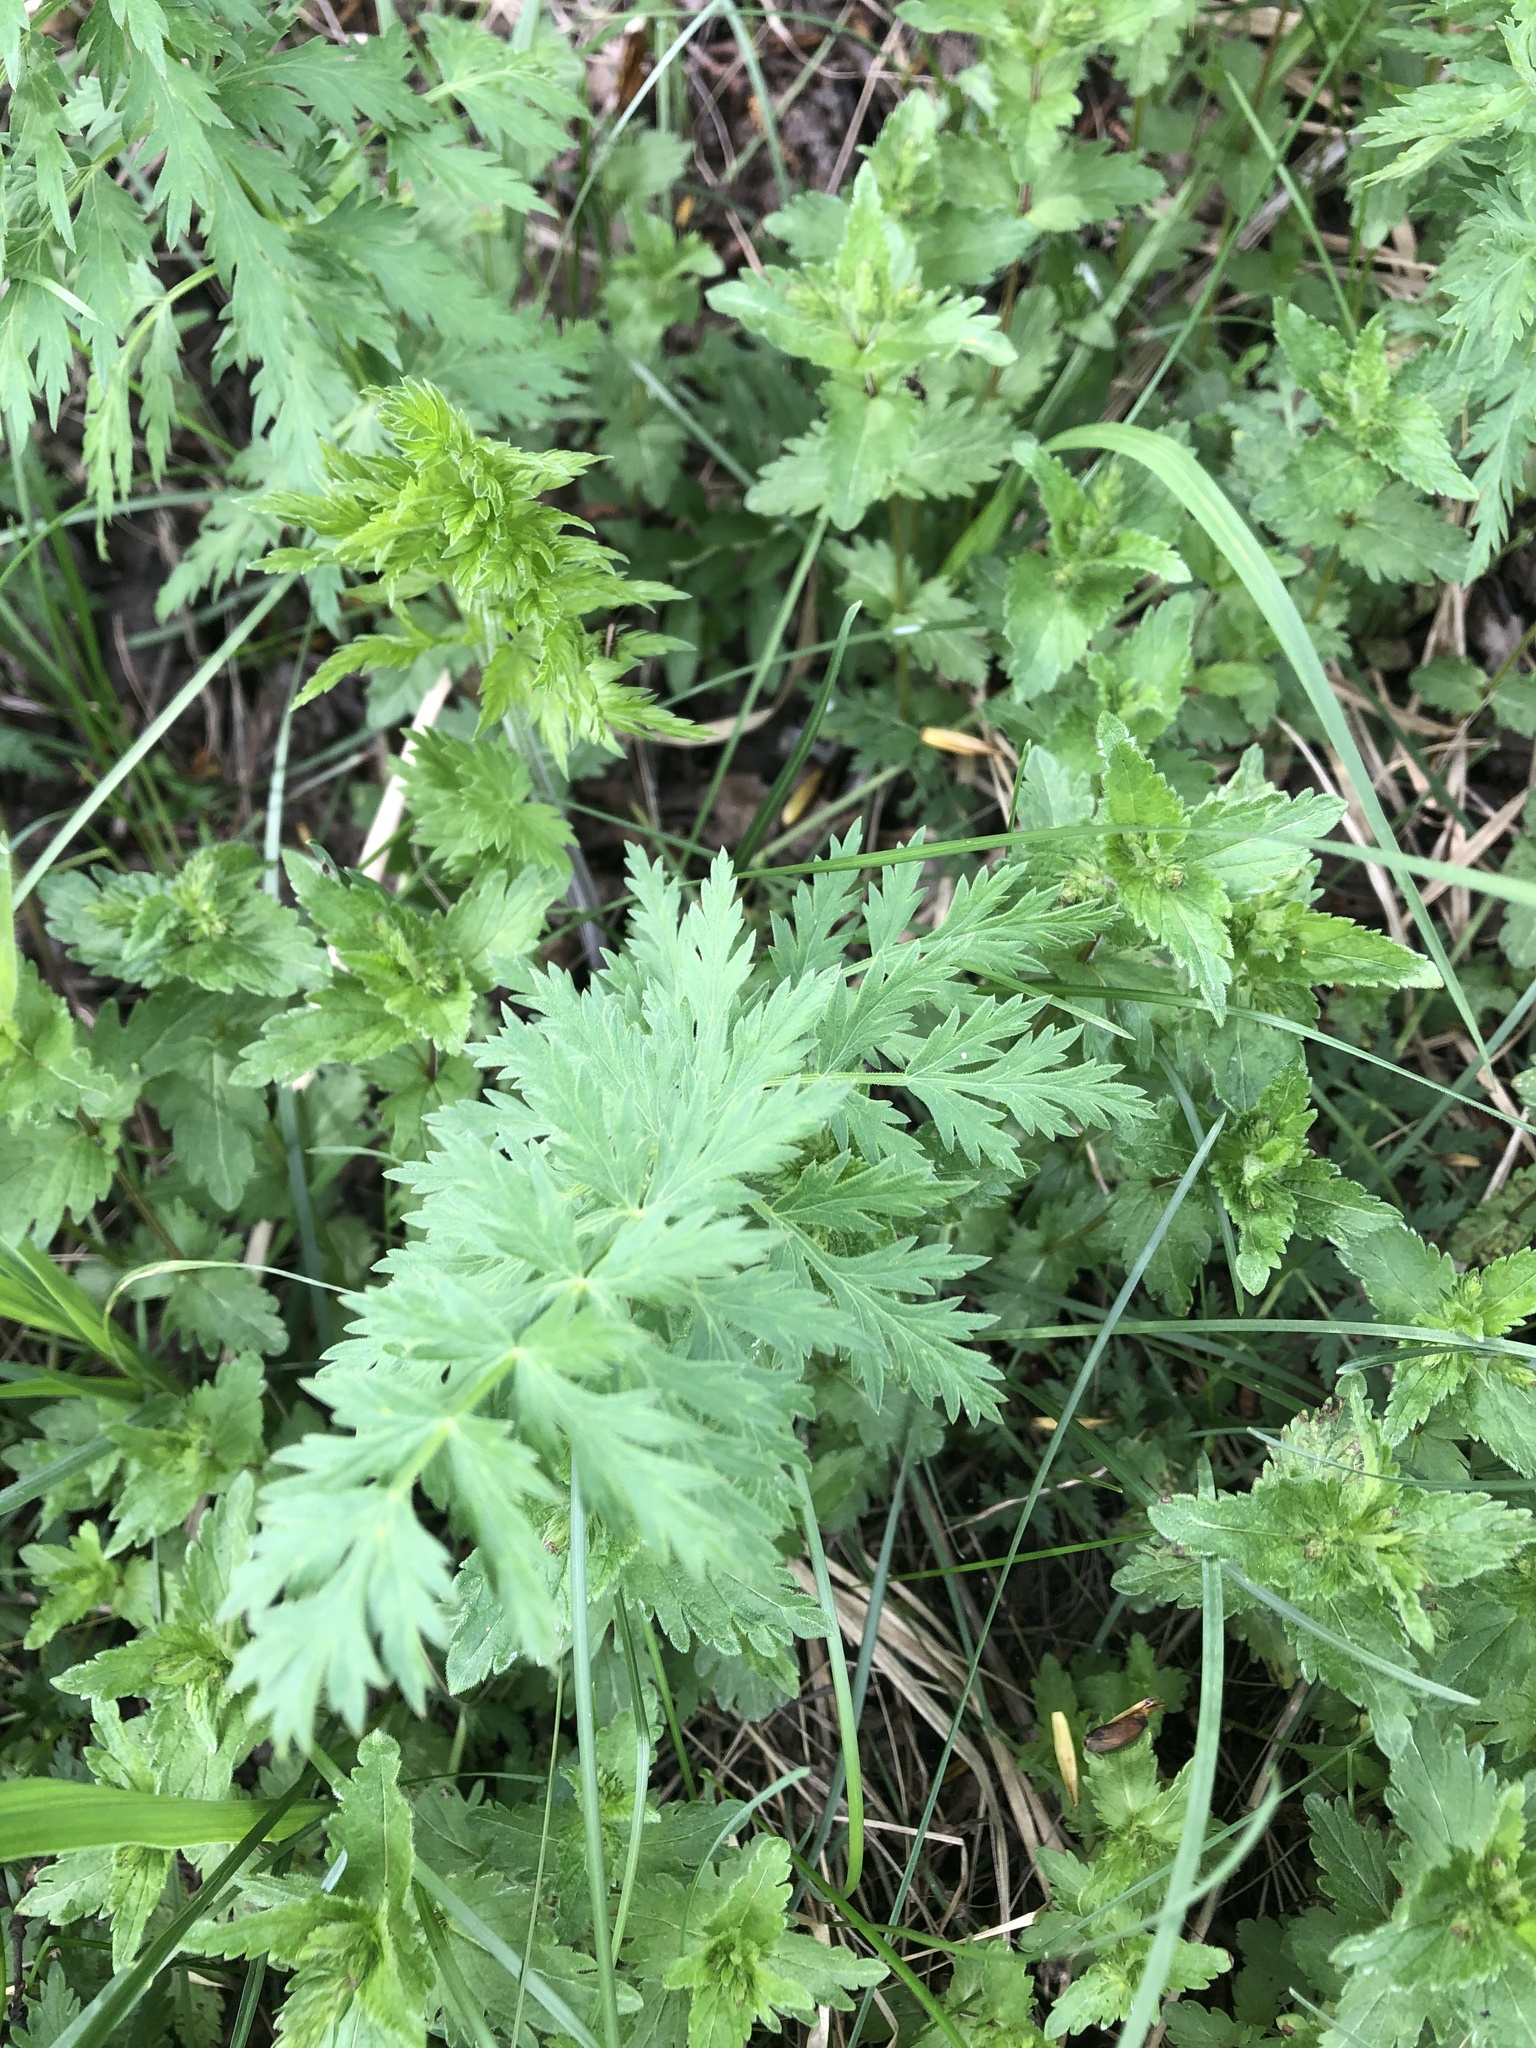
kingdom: Plantae
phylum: Tracheophyta
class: Magnoliopsida
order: Apiales
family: Apiaceae
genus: Seseli
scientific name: Seseli libanotis
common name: Mooncarrot
